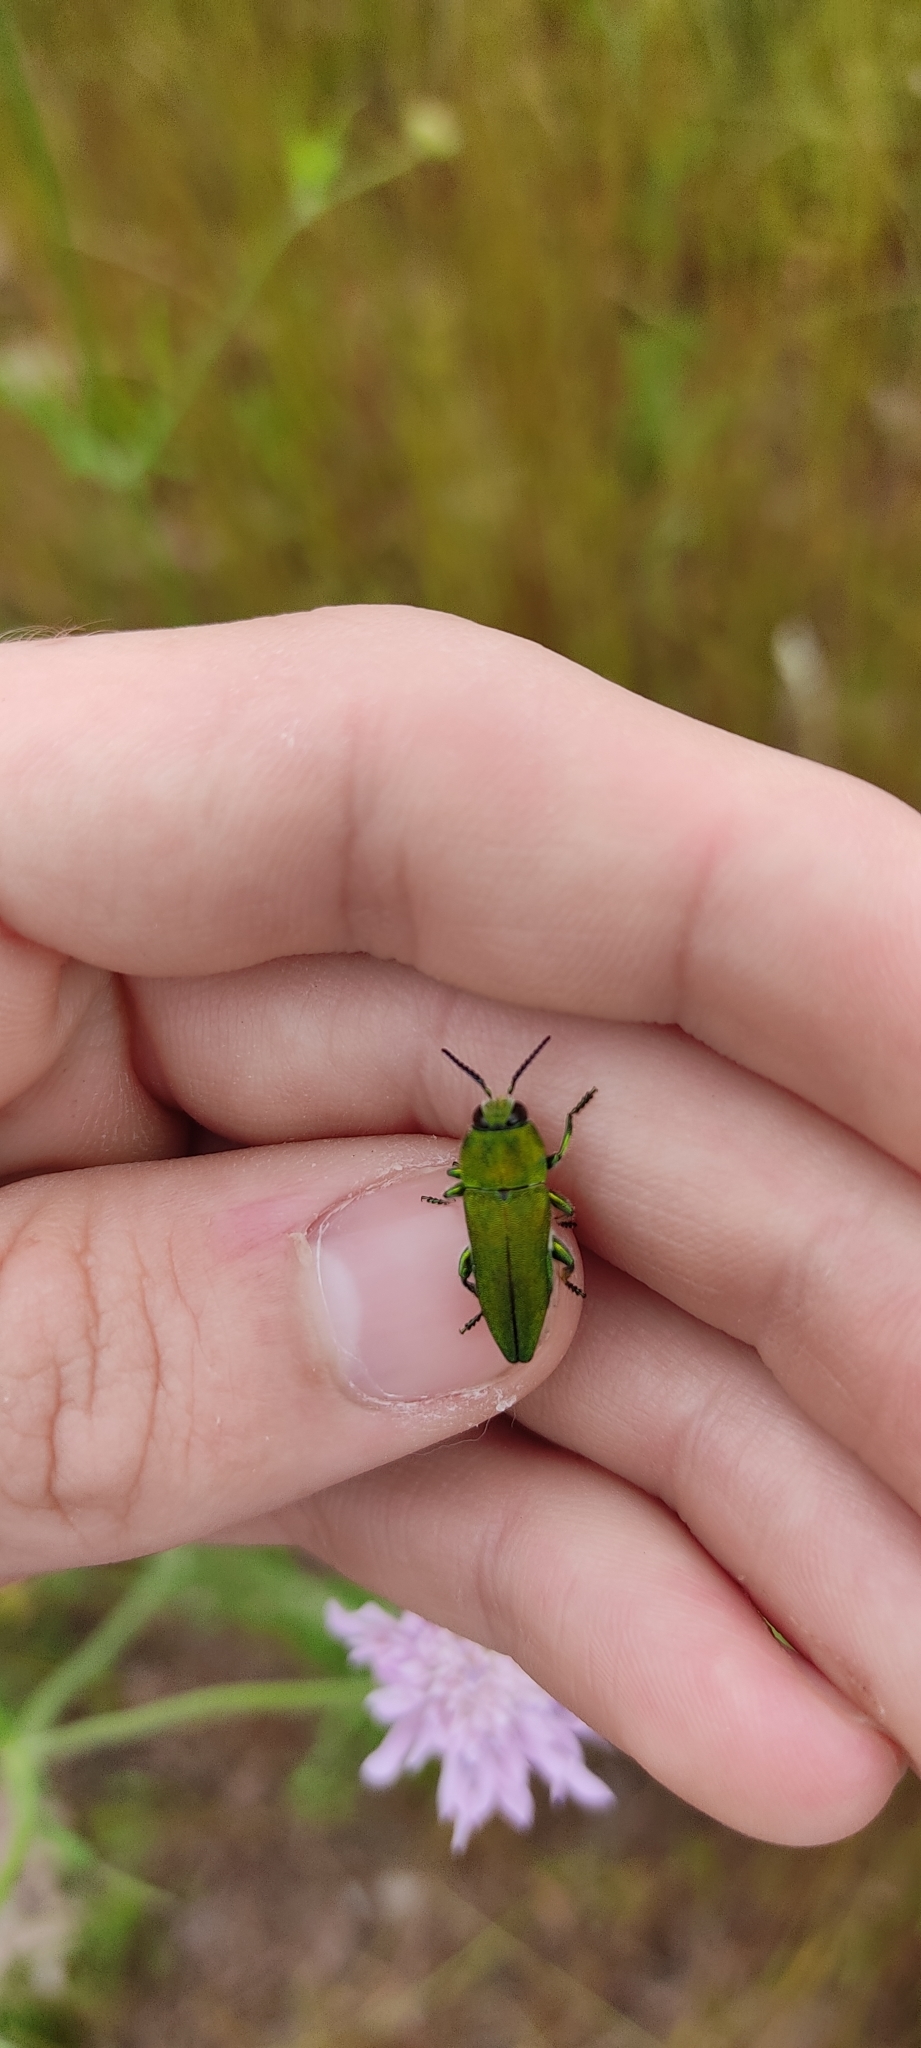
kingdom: Animalia
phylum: Arthropoda
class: Insecta
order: Coleoptera
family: Buprestidae
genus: Anthaxia
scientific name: Anthaxia hungarica
